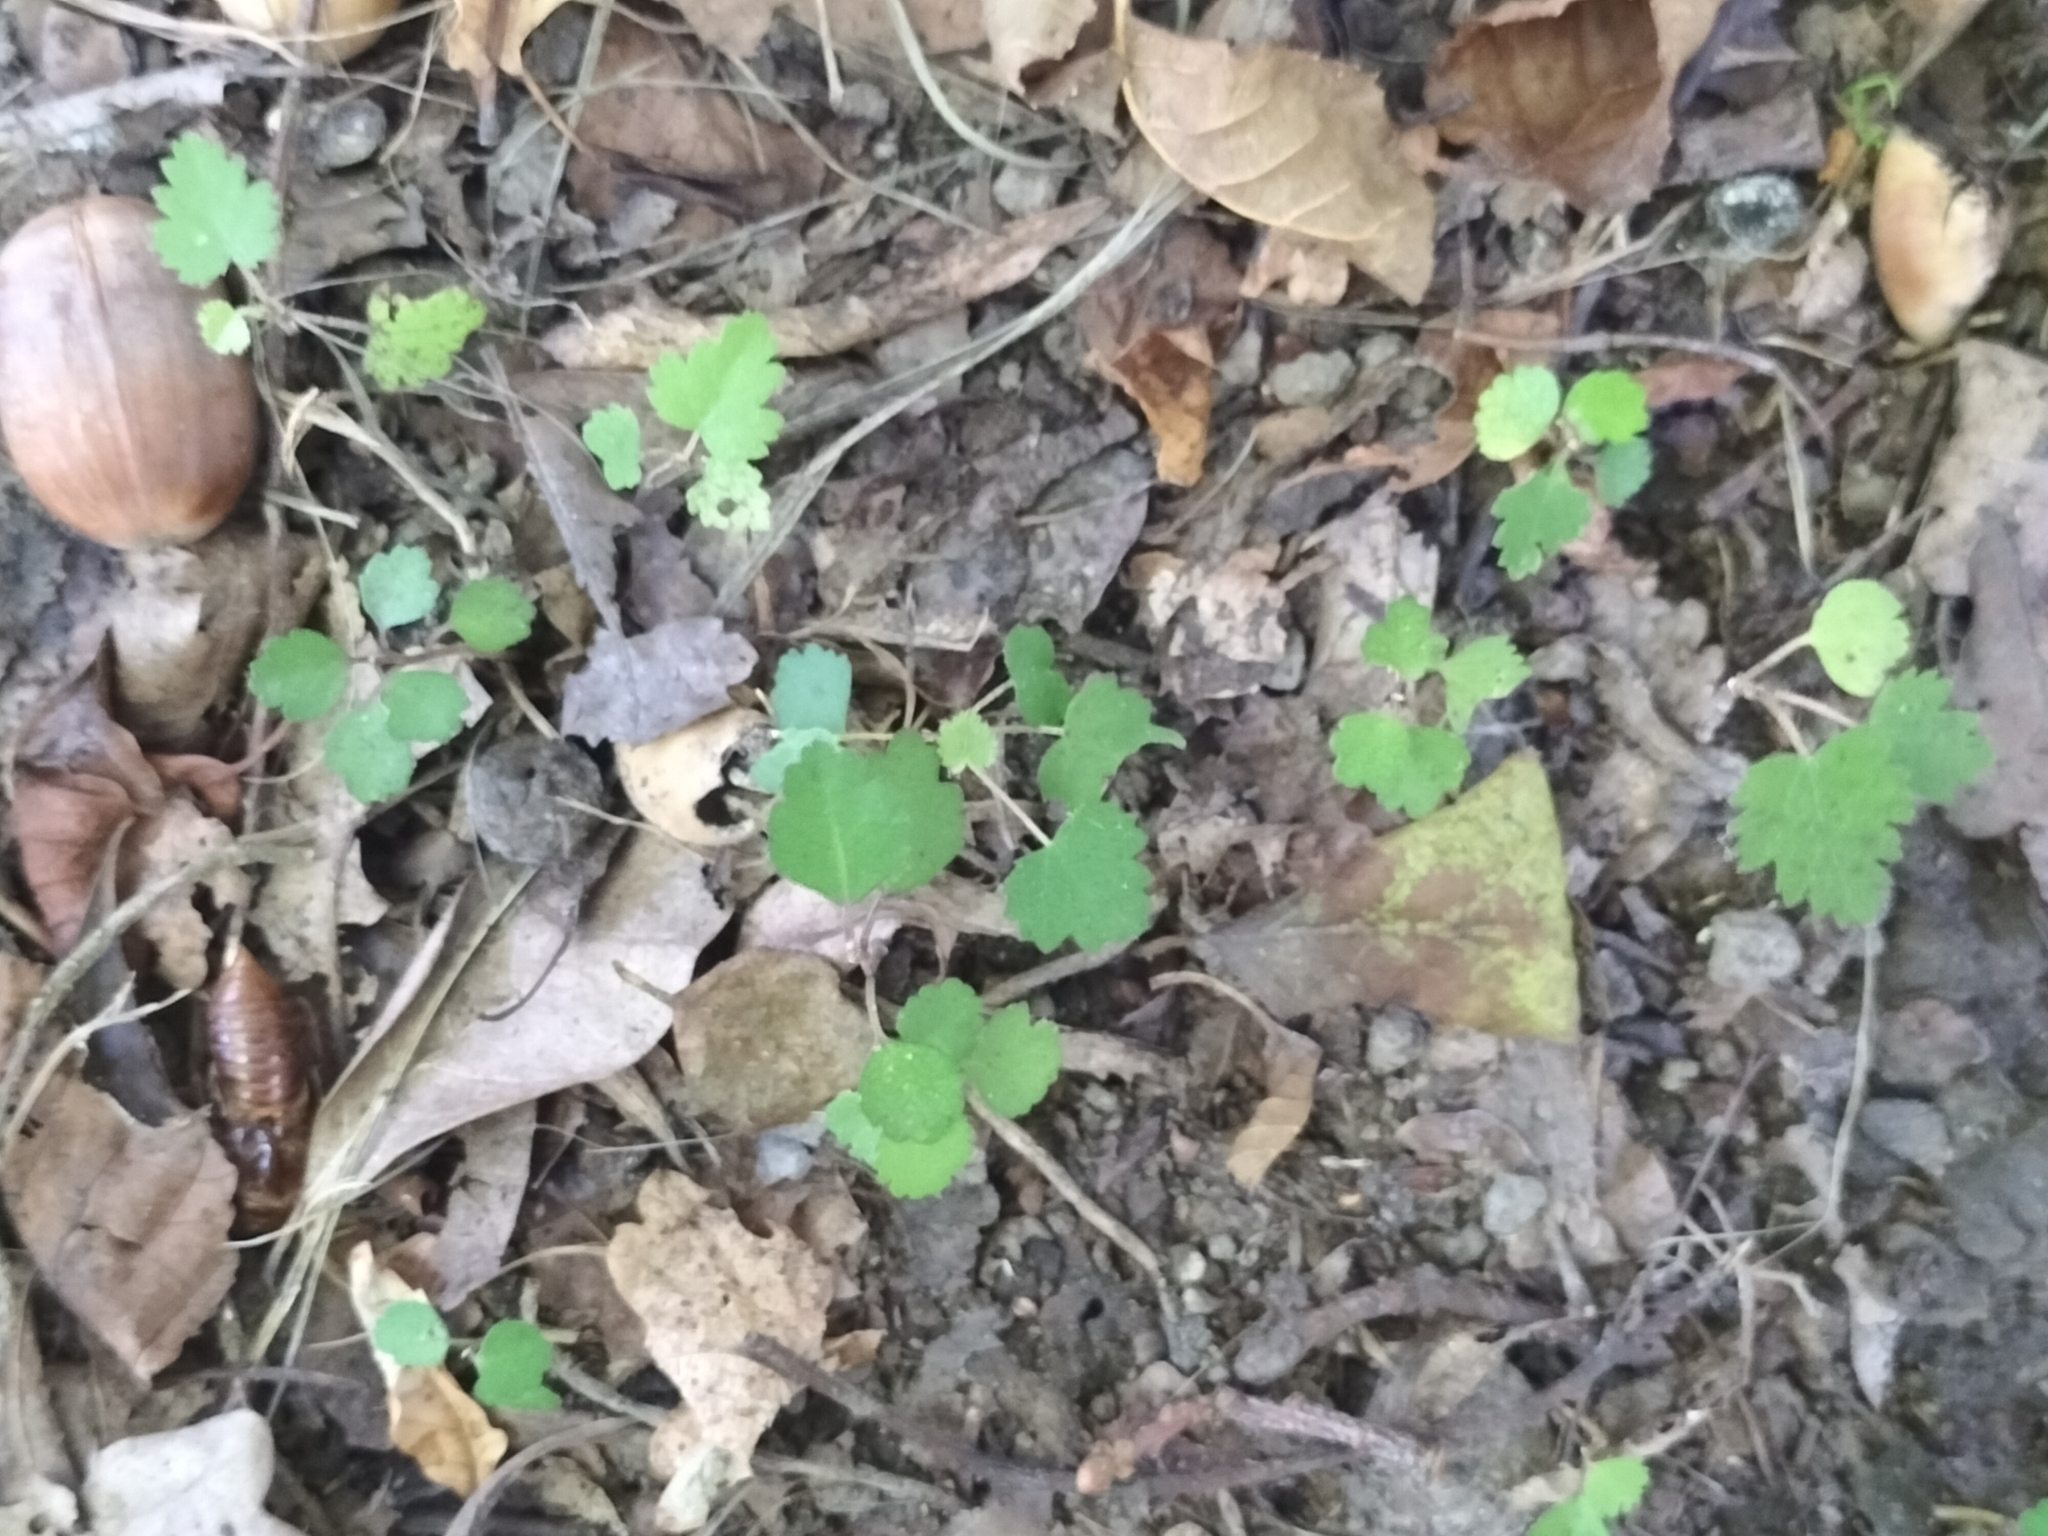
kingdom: Plantae
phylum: Tracheophyta
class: Magnoliopsida
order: Malvales
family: Malvaceae
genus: Plagianthus
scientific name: Plagianthus regius
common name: Manatu
